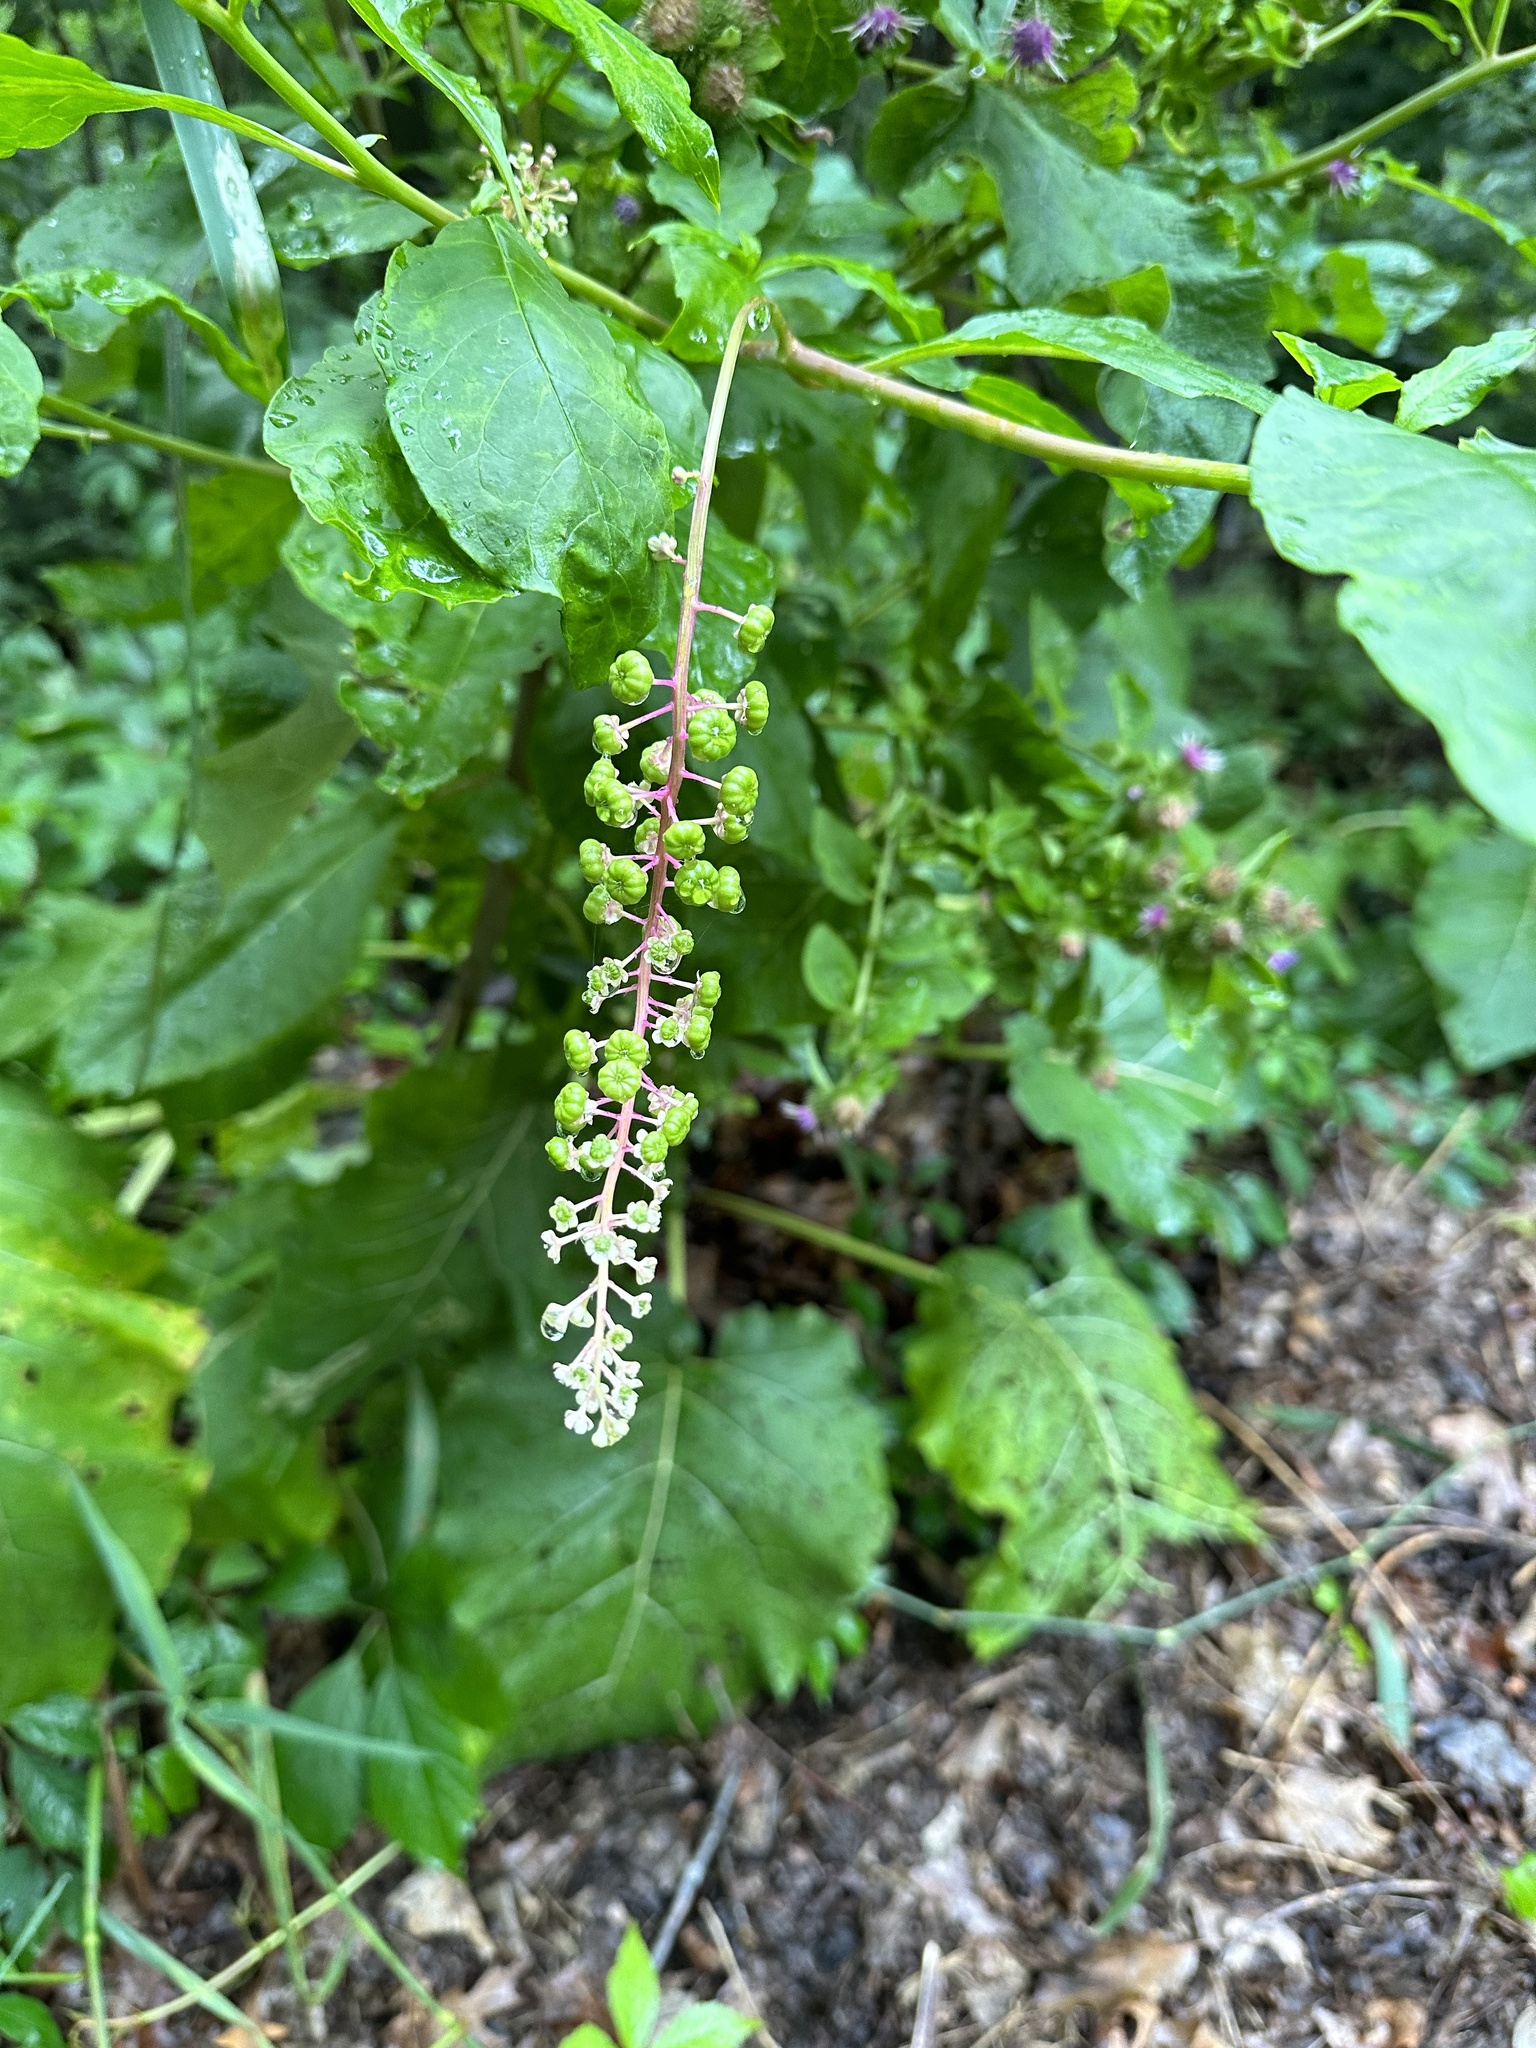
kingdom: Plantae
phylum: Tracheophyta
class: Magnoliopsida
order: Caryophyllales
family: Phytolaccaceae
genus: Phytolacca
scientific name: Phytolacca americana
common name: American pokeweed
